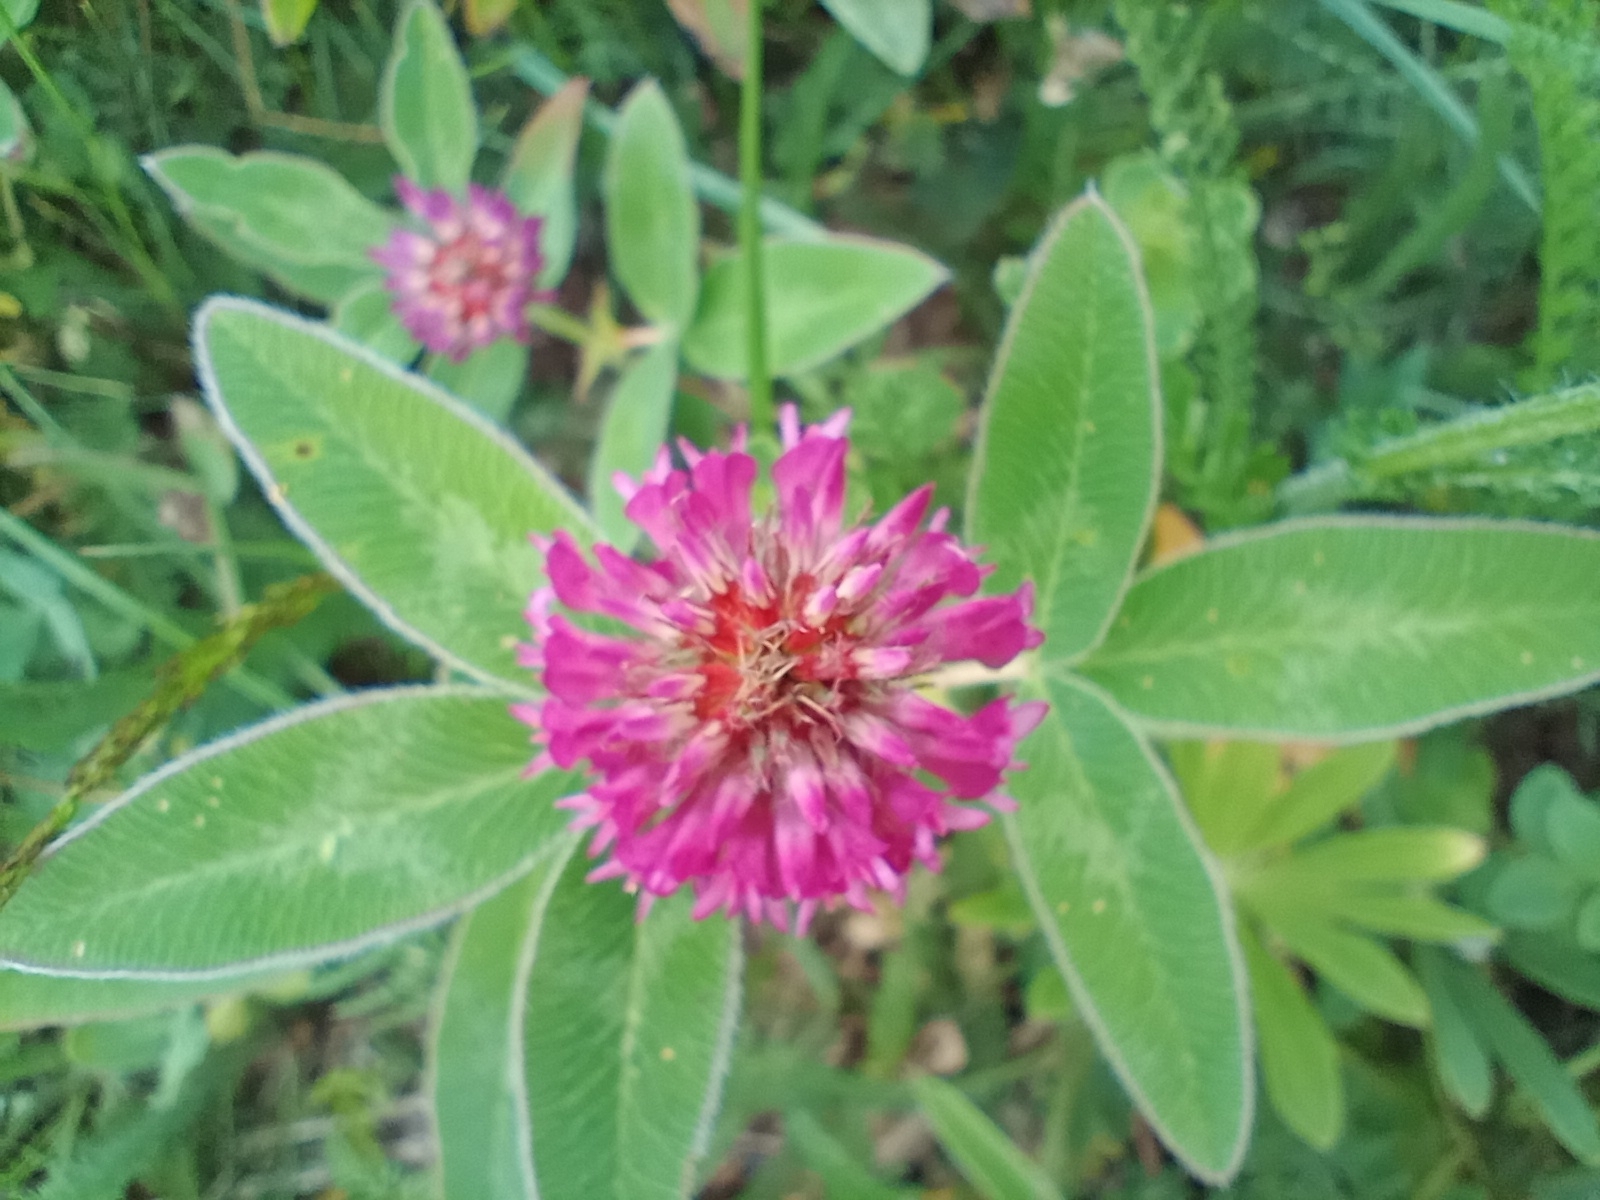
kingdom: Plantae
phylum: Tracheophyta
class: Magnoliopsida
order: Fabales
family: Fabaceae
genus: Trifolium
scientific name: Trifolium medium
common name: Zigzag clover
